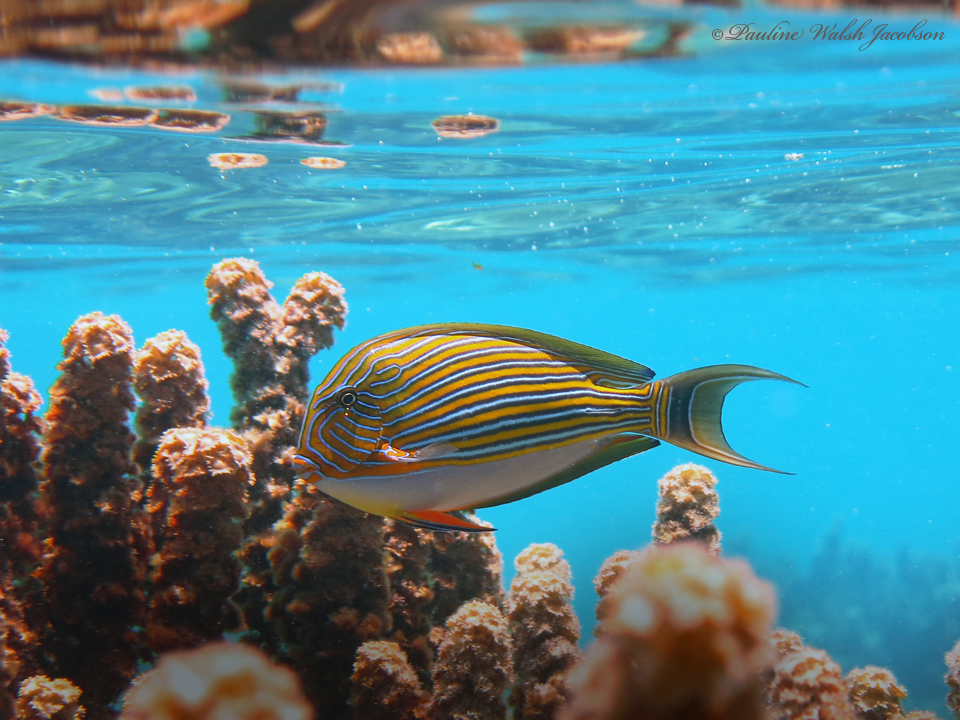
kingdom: Animalia
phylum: Chordata
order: Perciformes
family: Acanthuridae
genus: Acanthurus
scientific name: Acanthurus lineatus
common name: Striped surgeonfish
